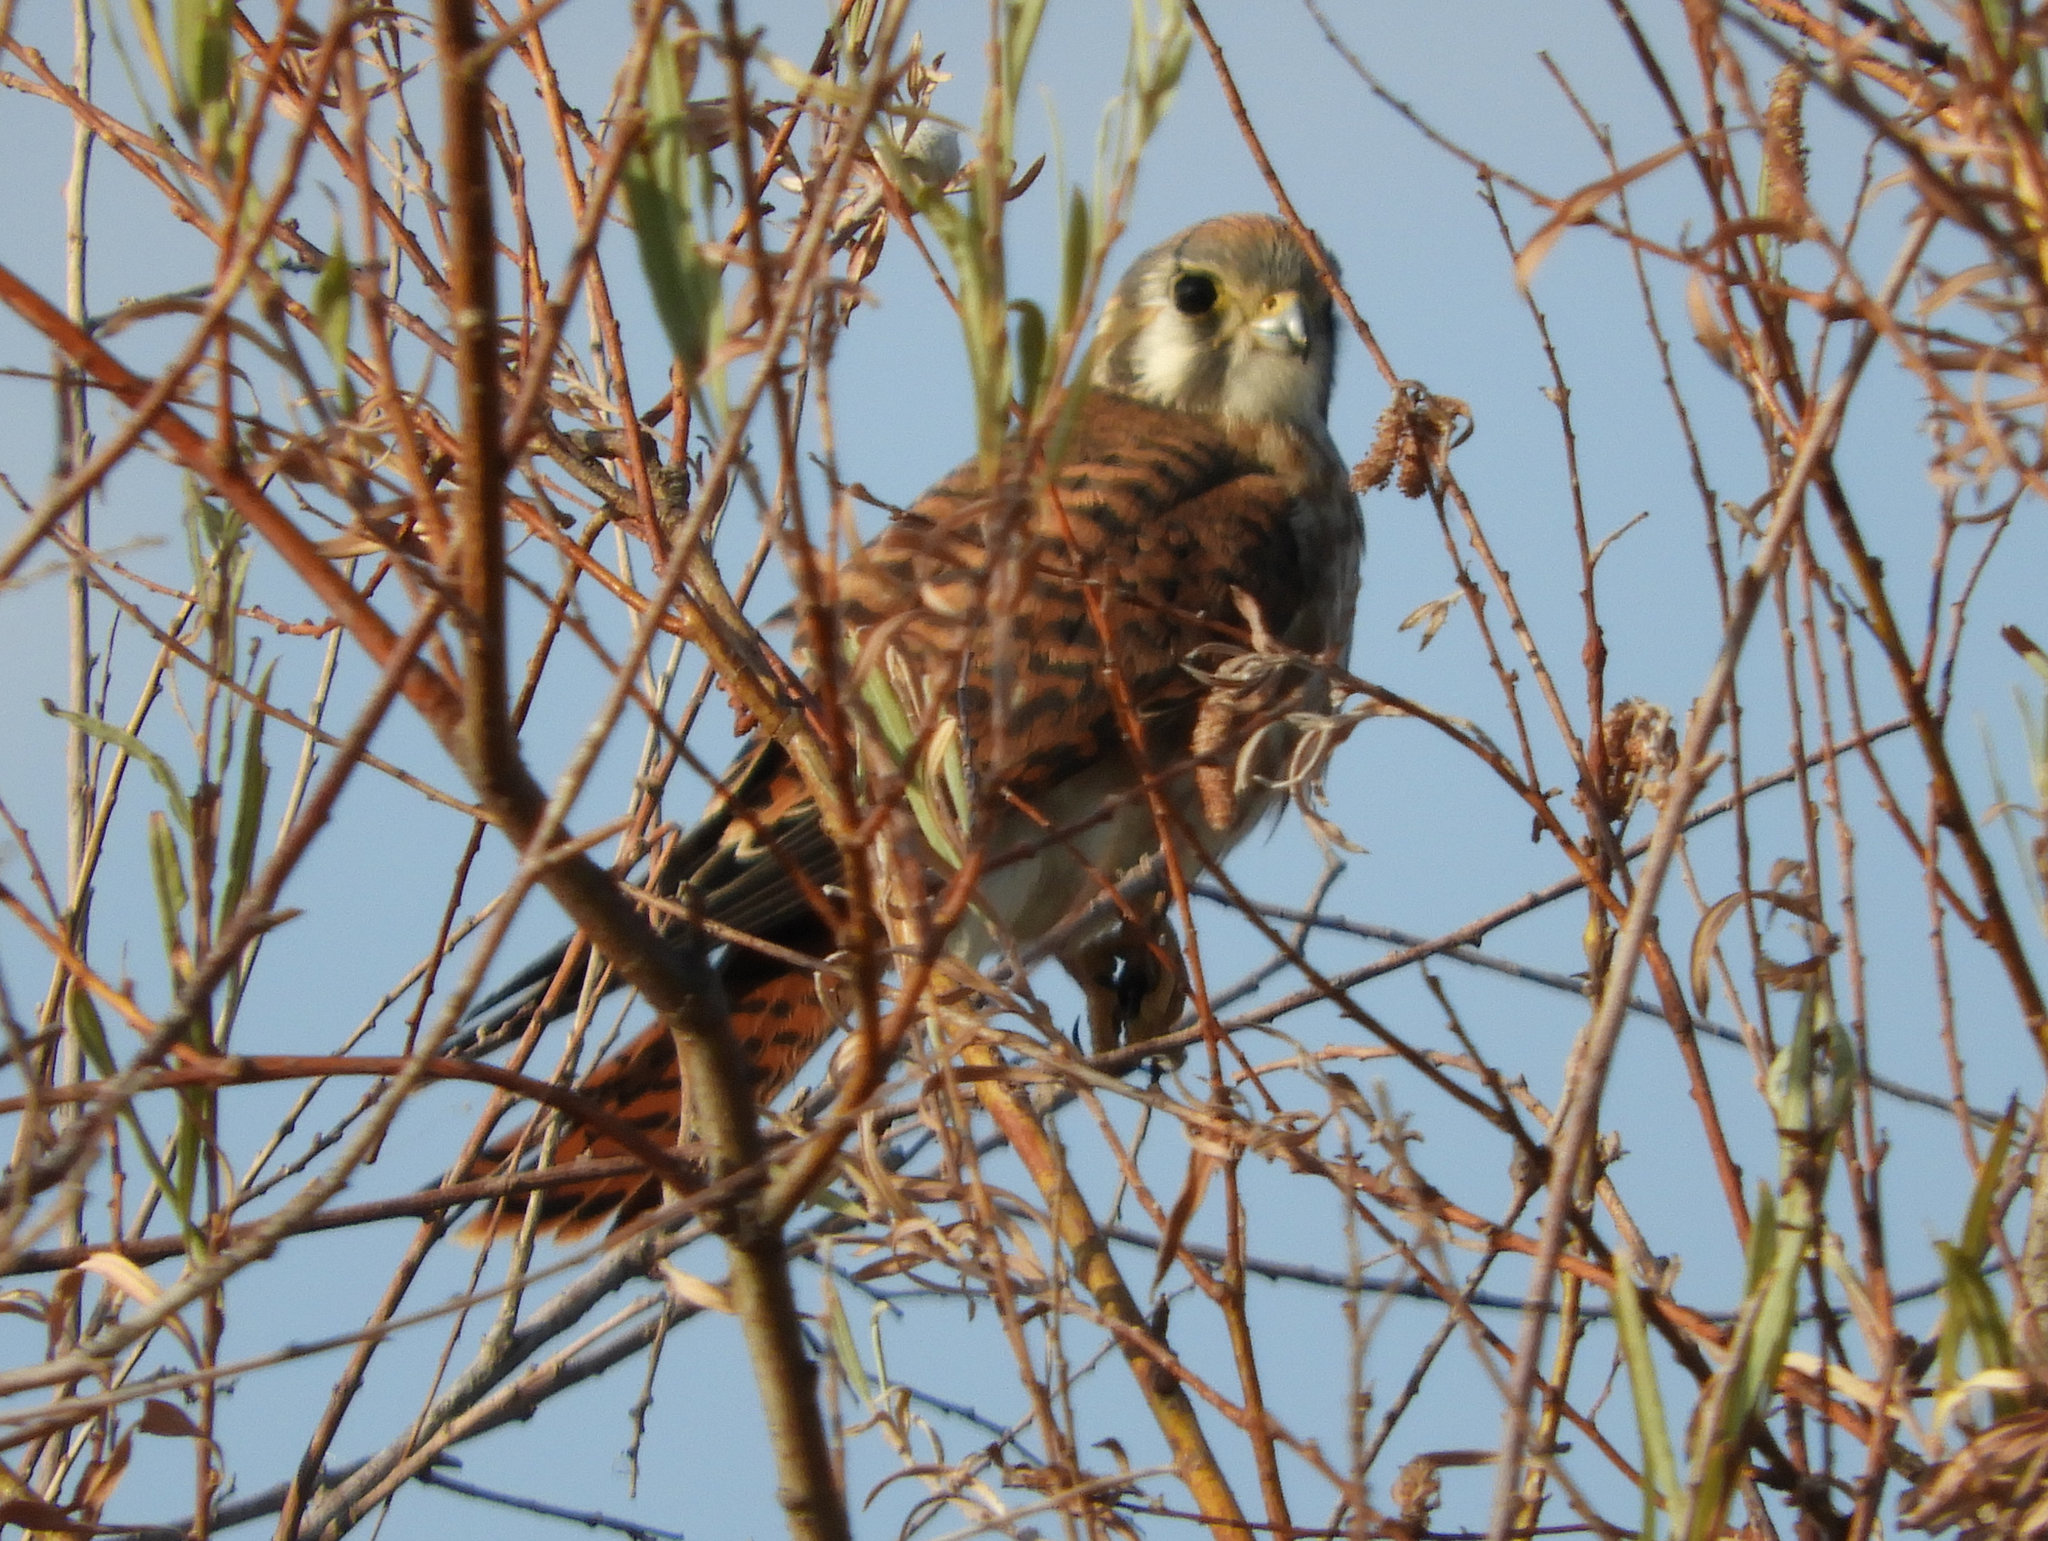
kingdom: Animalia
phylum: Chordata
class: Aves
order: Falconiformes
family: Falconidae
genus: Falco
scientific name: Falco sparverius
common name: American kestrel
